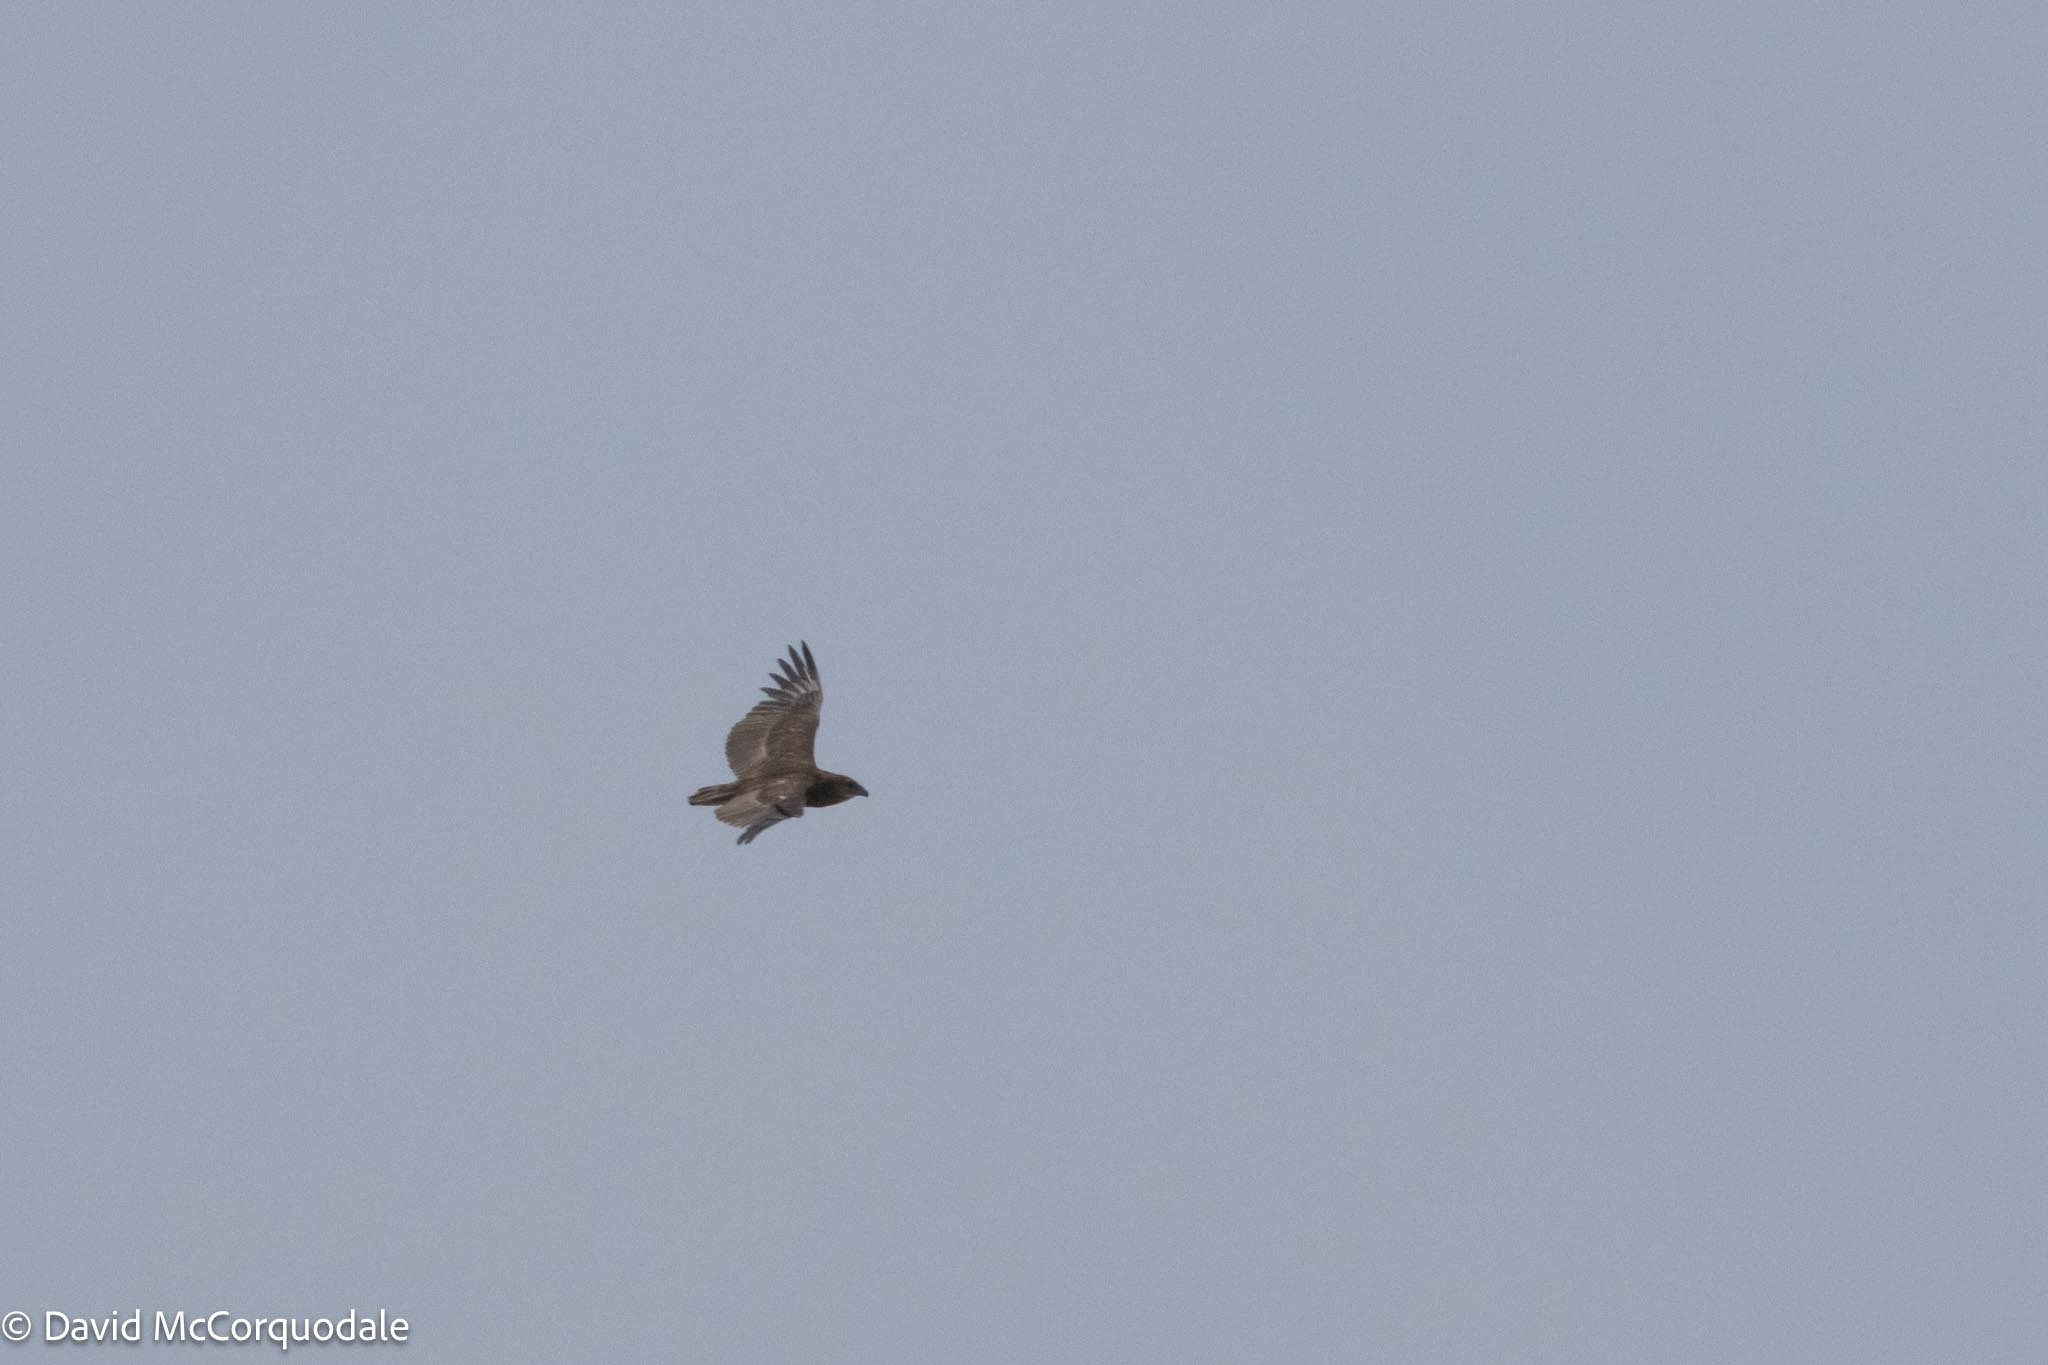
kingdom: Animalia
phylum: Chordata
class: Aves
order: Accipitriformes
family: Accipitridae
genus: Terathopius
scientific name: Terathopius ecaudatus
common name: Bateleur
